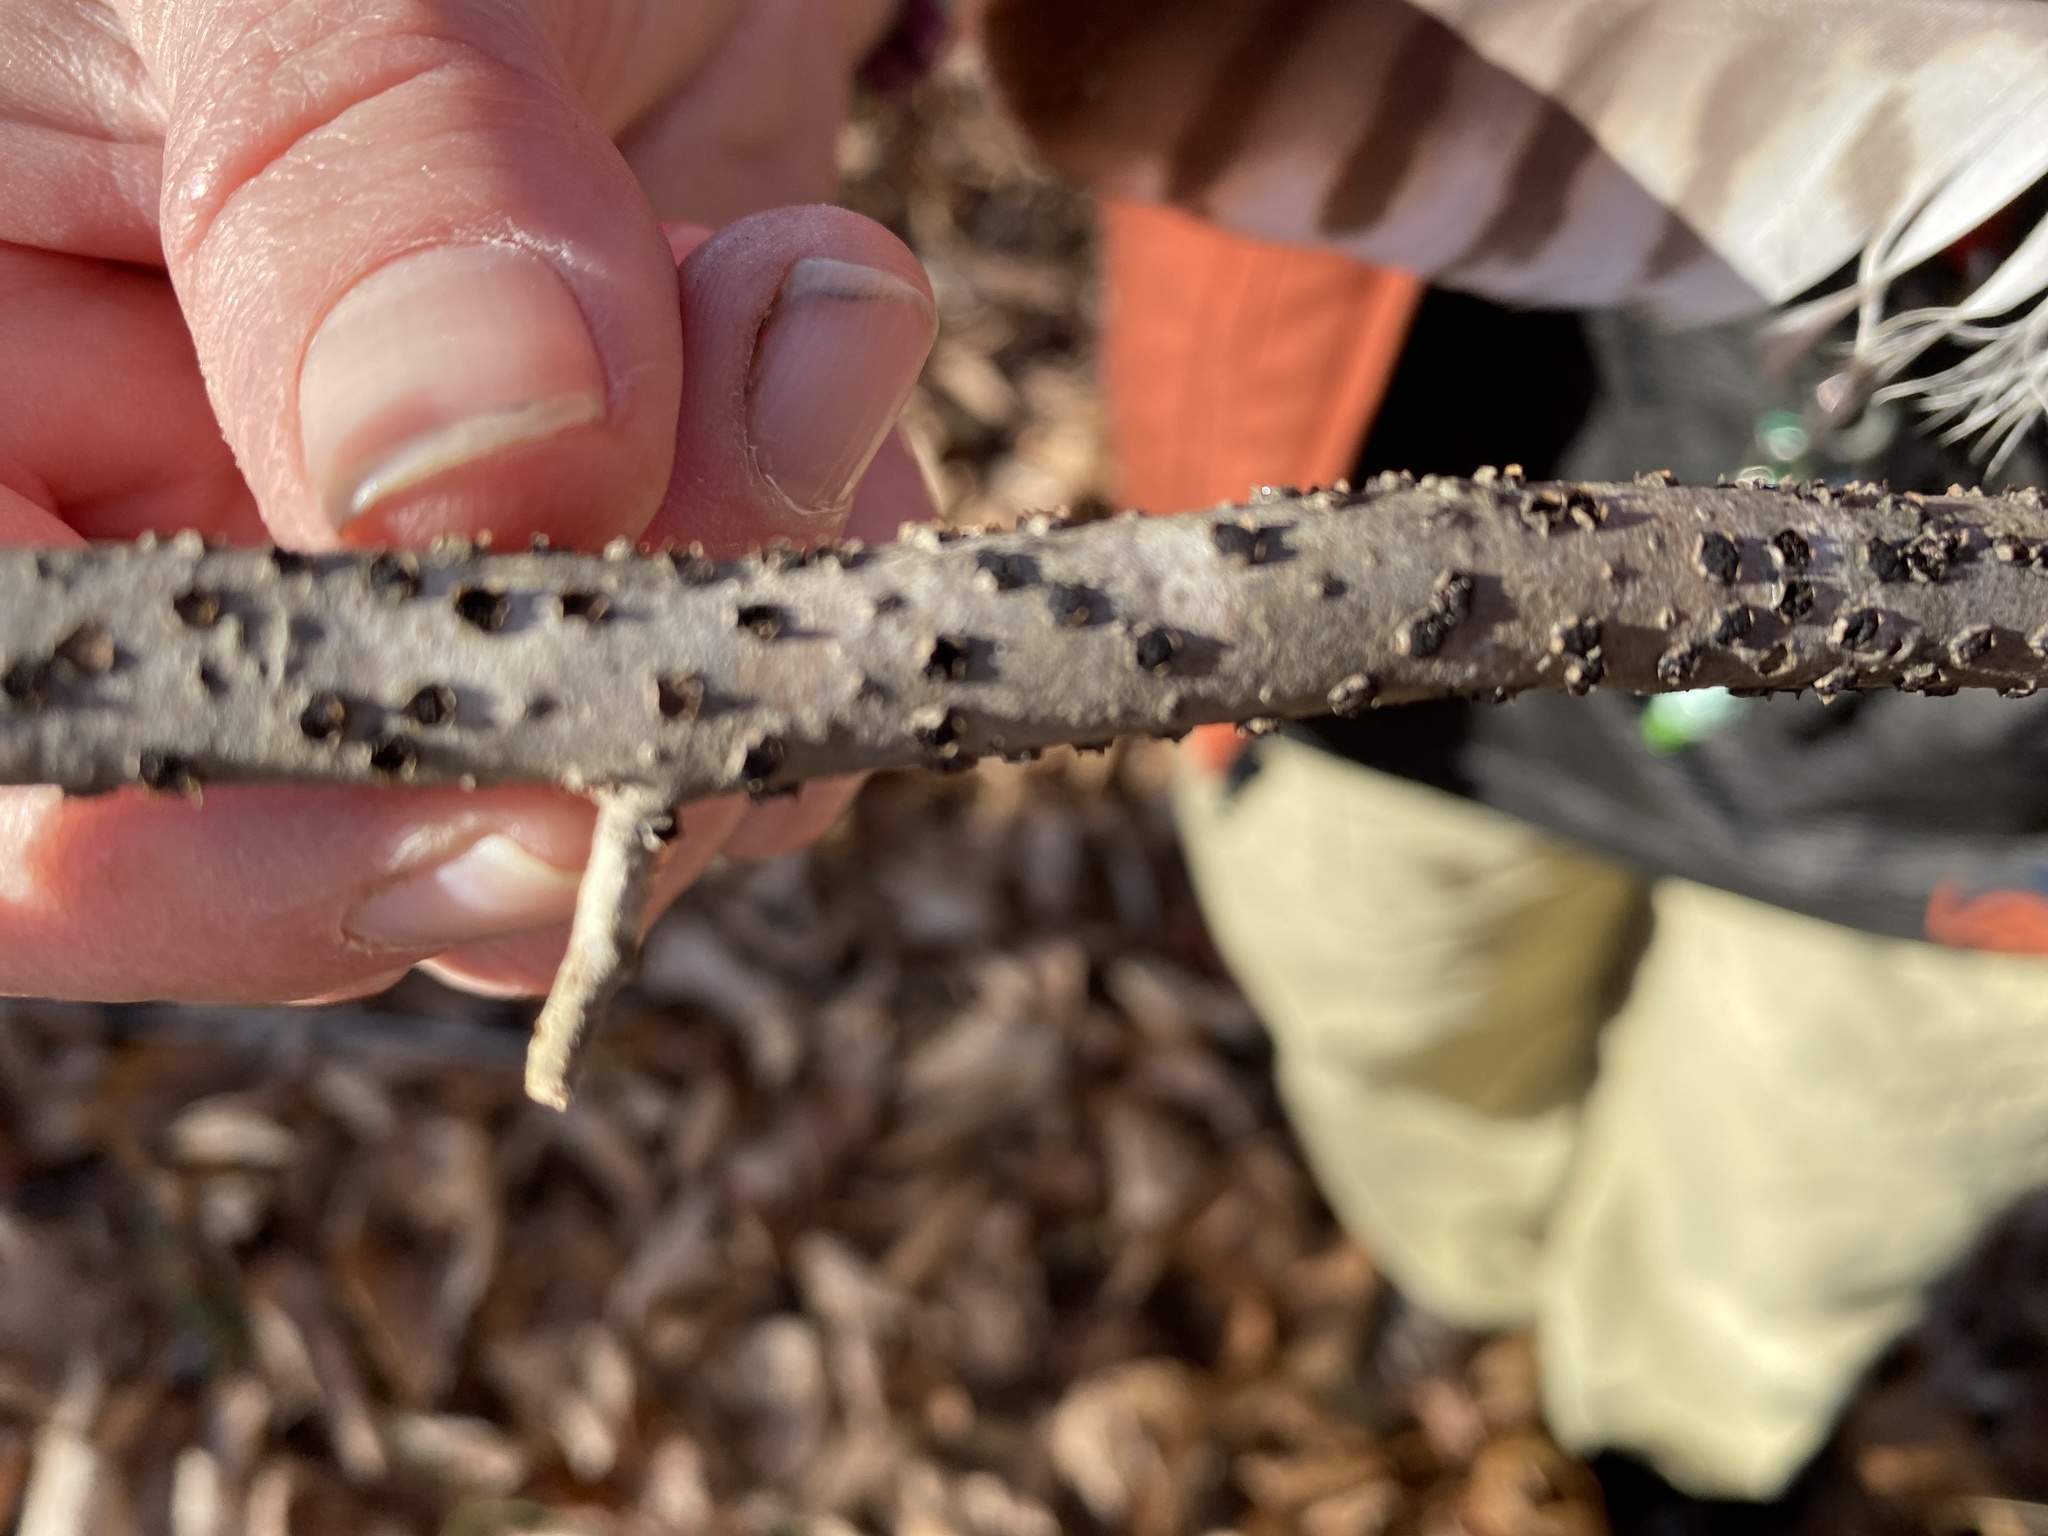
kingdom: Fungi
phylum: Ascomycota
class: Sordariomycetes
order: Xylariales
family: Diatrypaceae
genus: Diatrype
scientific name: Diatrype disciformis
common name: Beech barkspot
